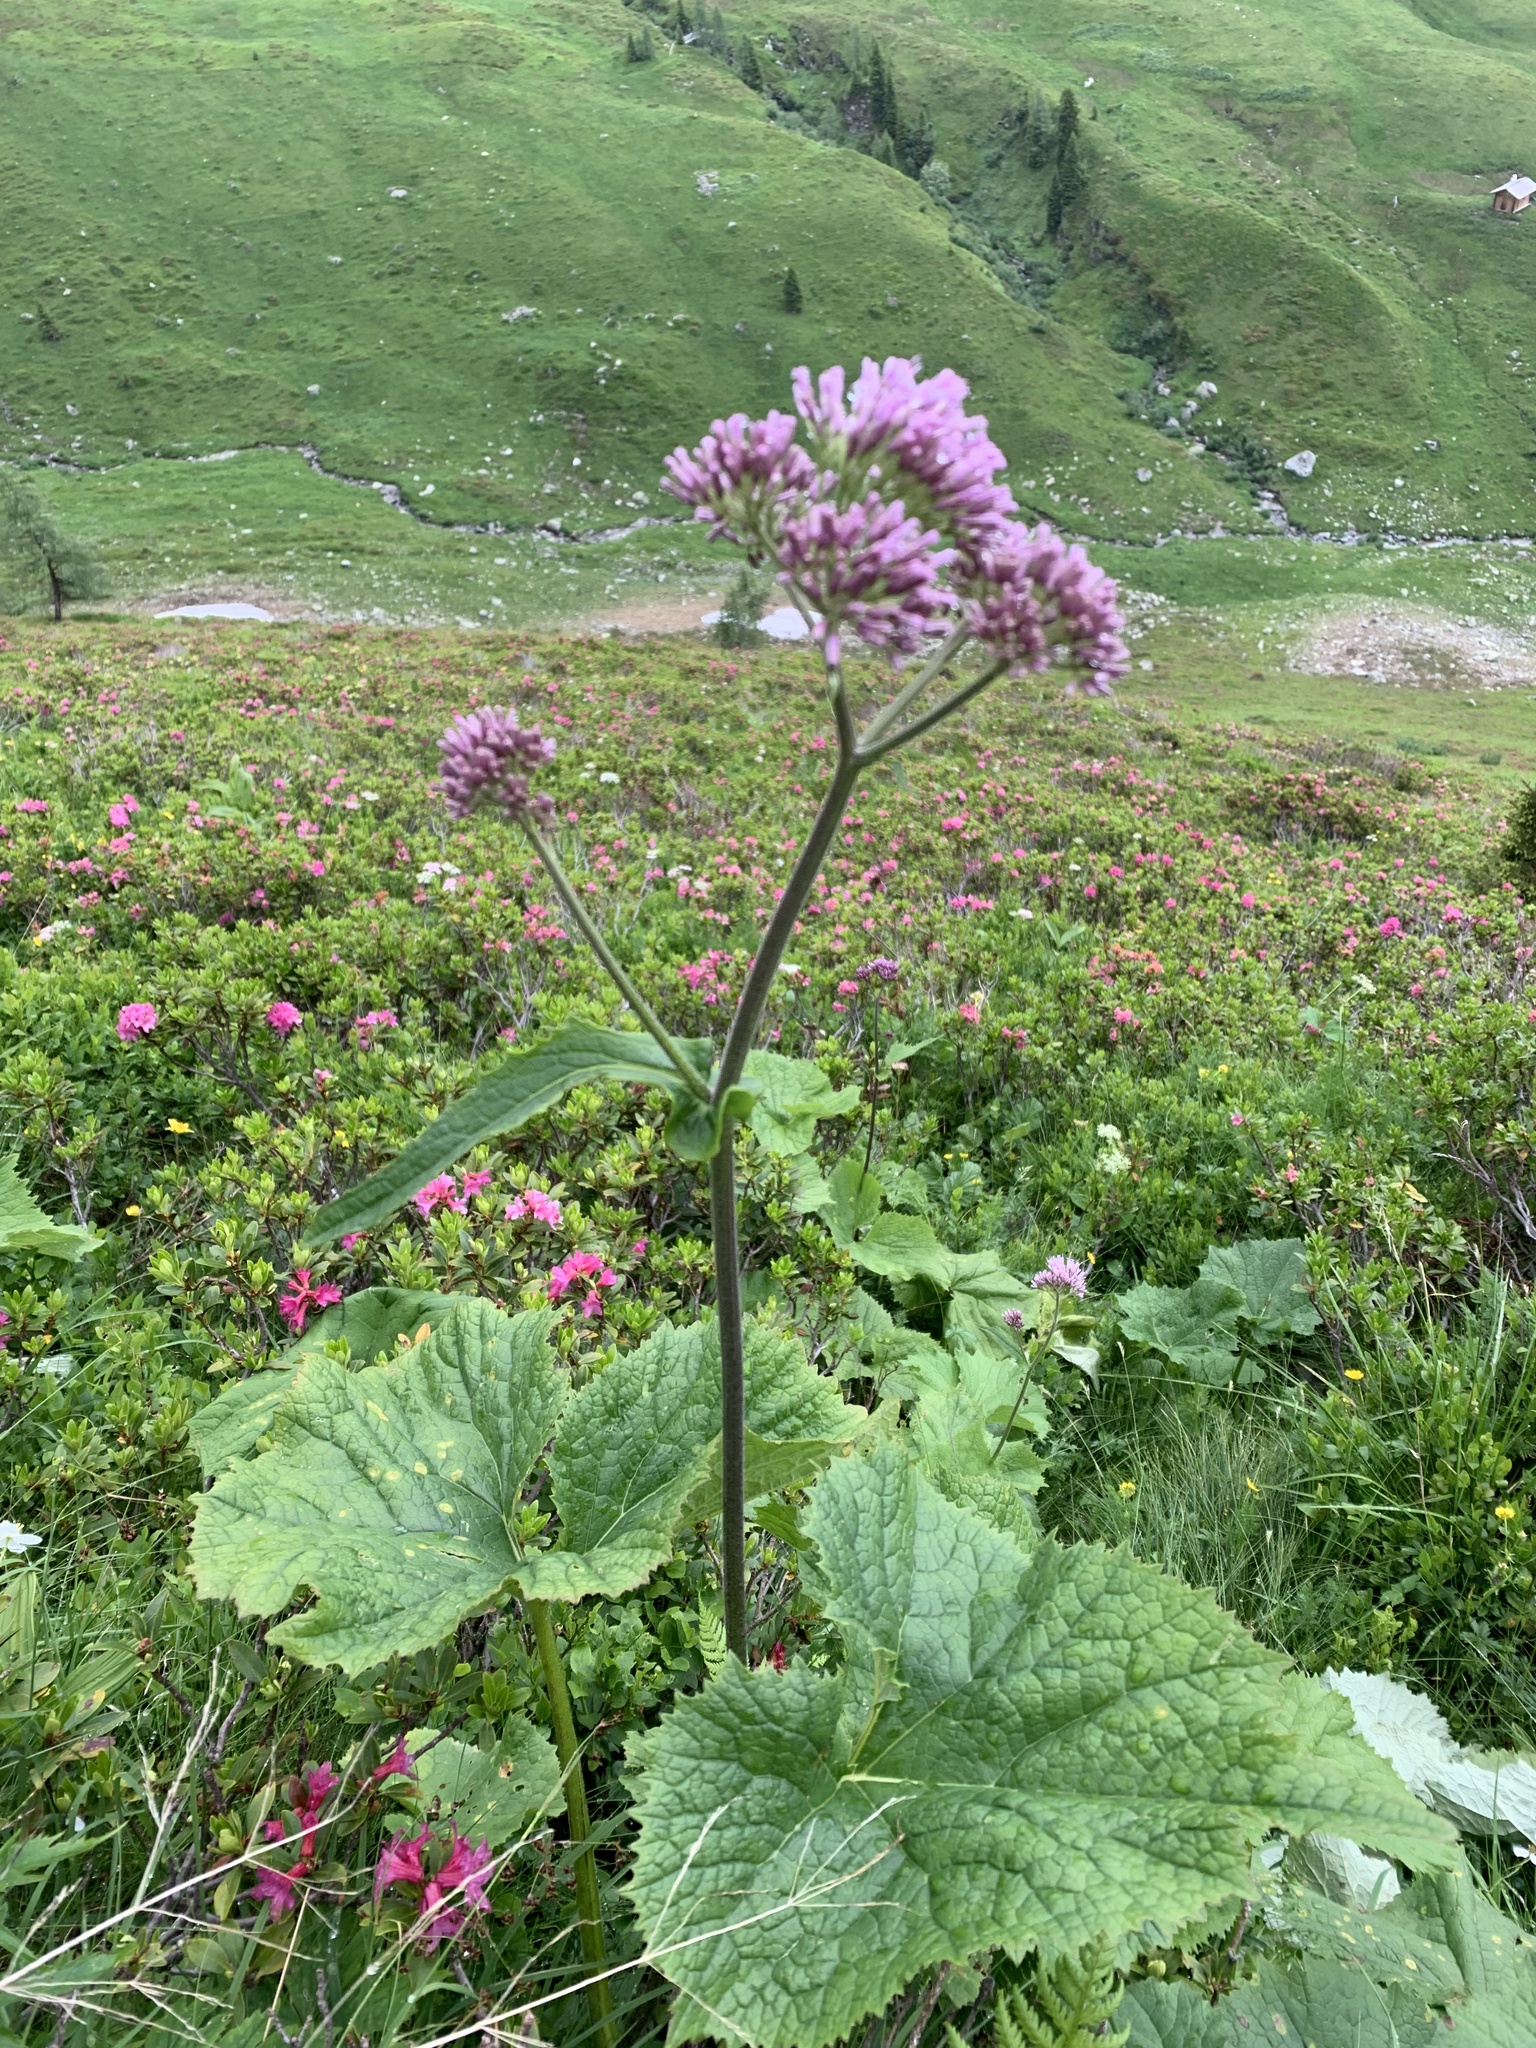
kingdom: Plantae
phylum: Tracheophyta
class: Magnoliopsida
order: Asterales
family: Asteraceae
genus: Adenostyles
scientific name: Adenostyles alliariae
